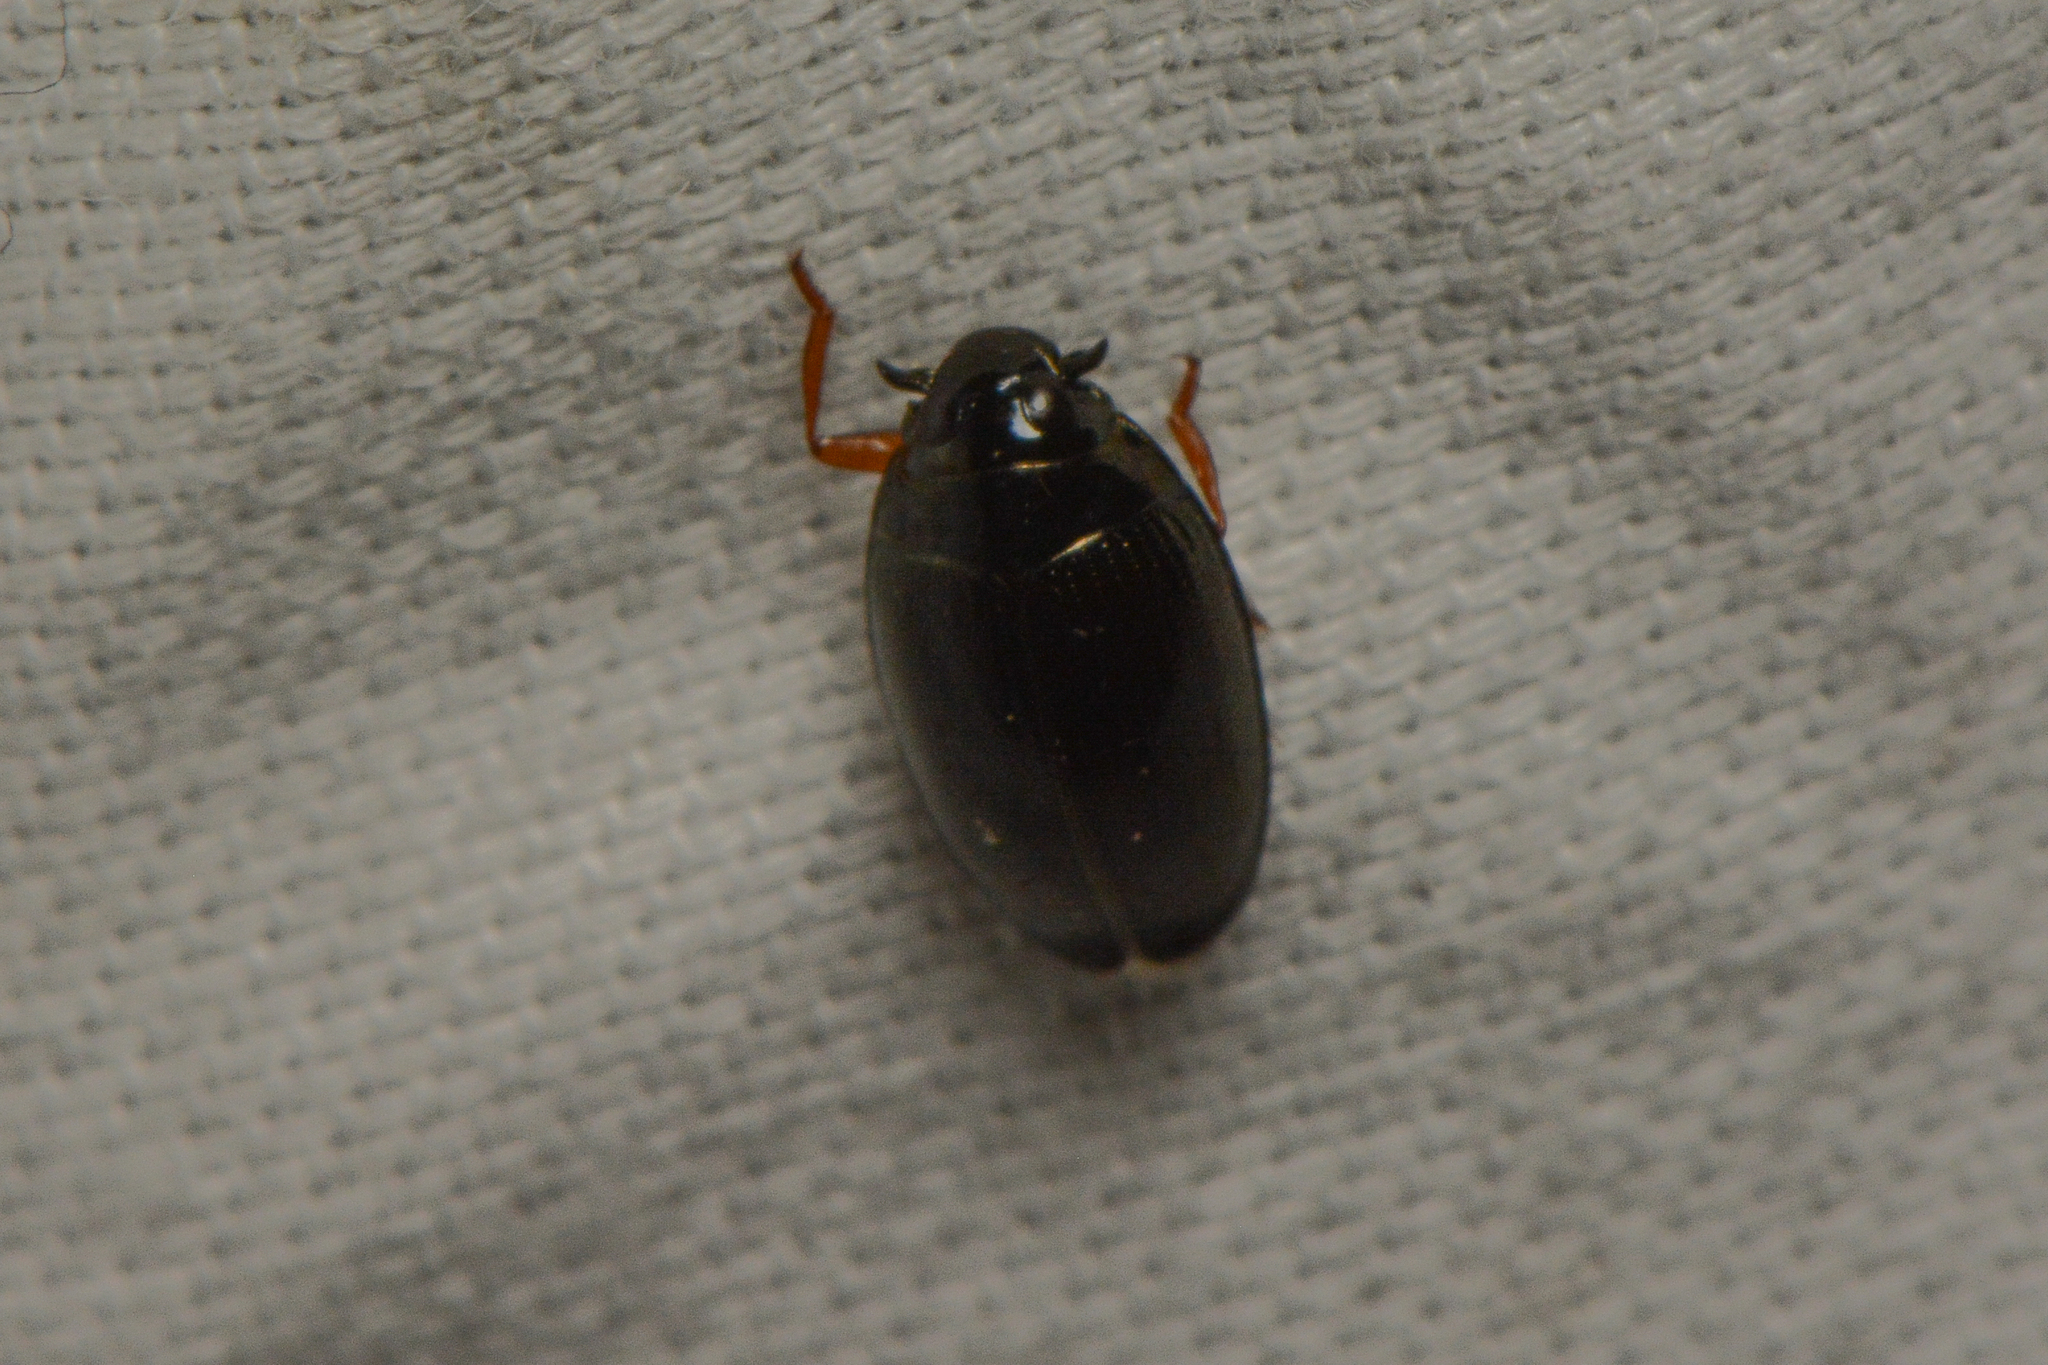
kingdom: Animalia
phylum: Arthropoda
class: Insecta
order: Coleoptera
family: Gyrinidae
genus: Gyrinus
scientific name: Gyrinus
